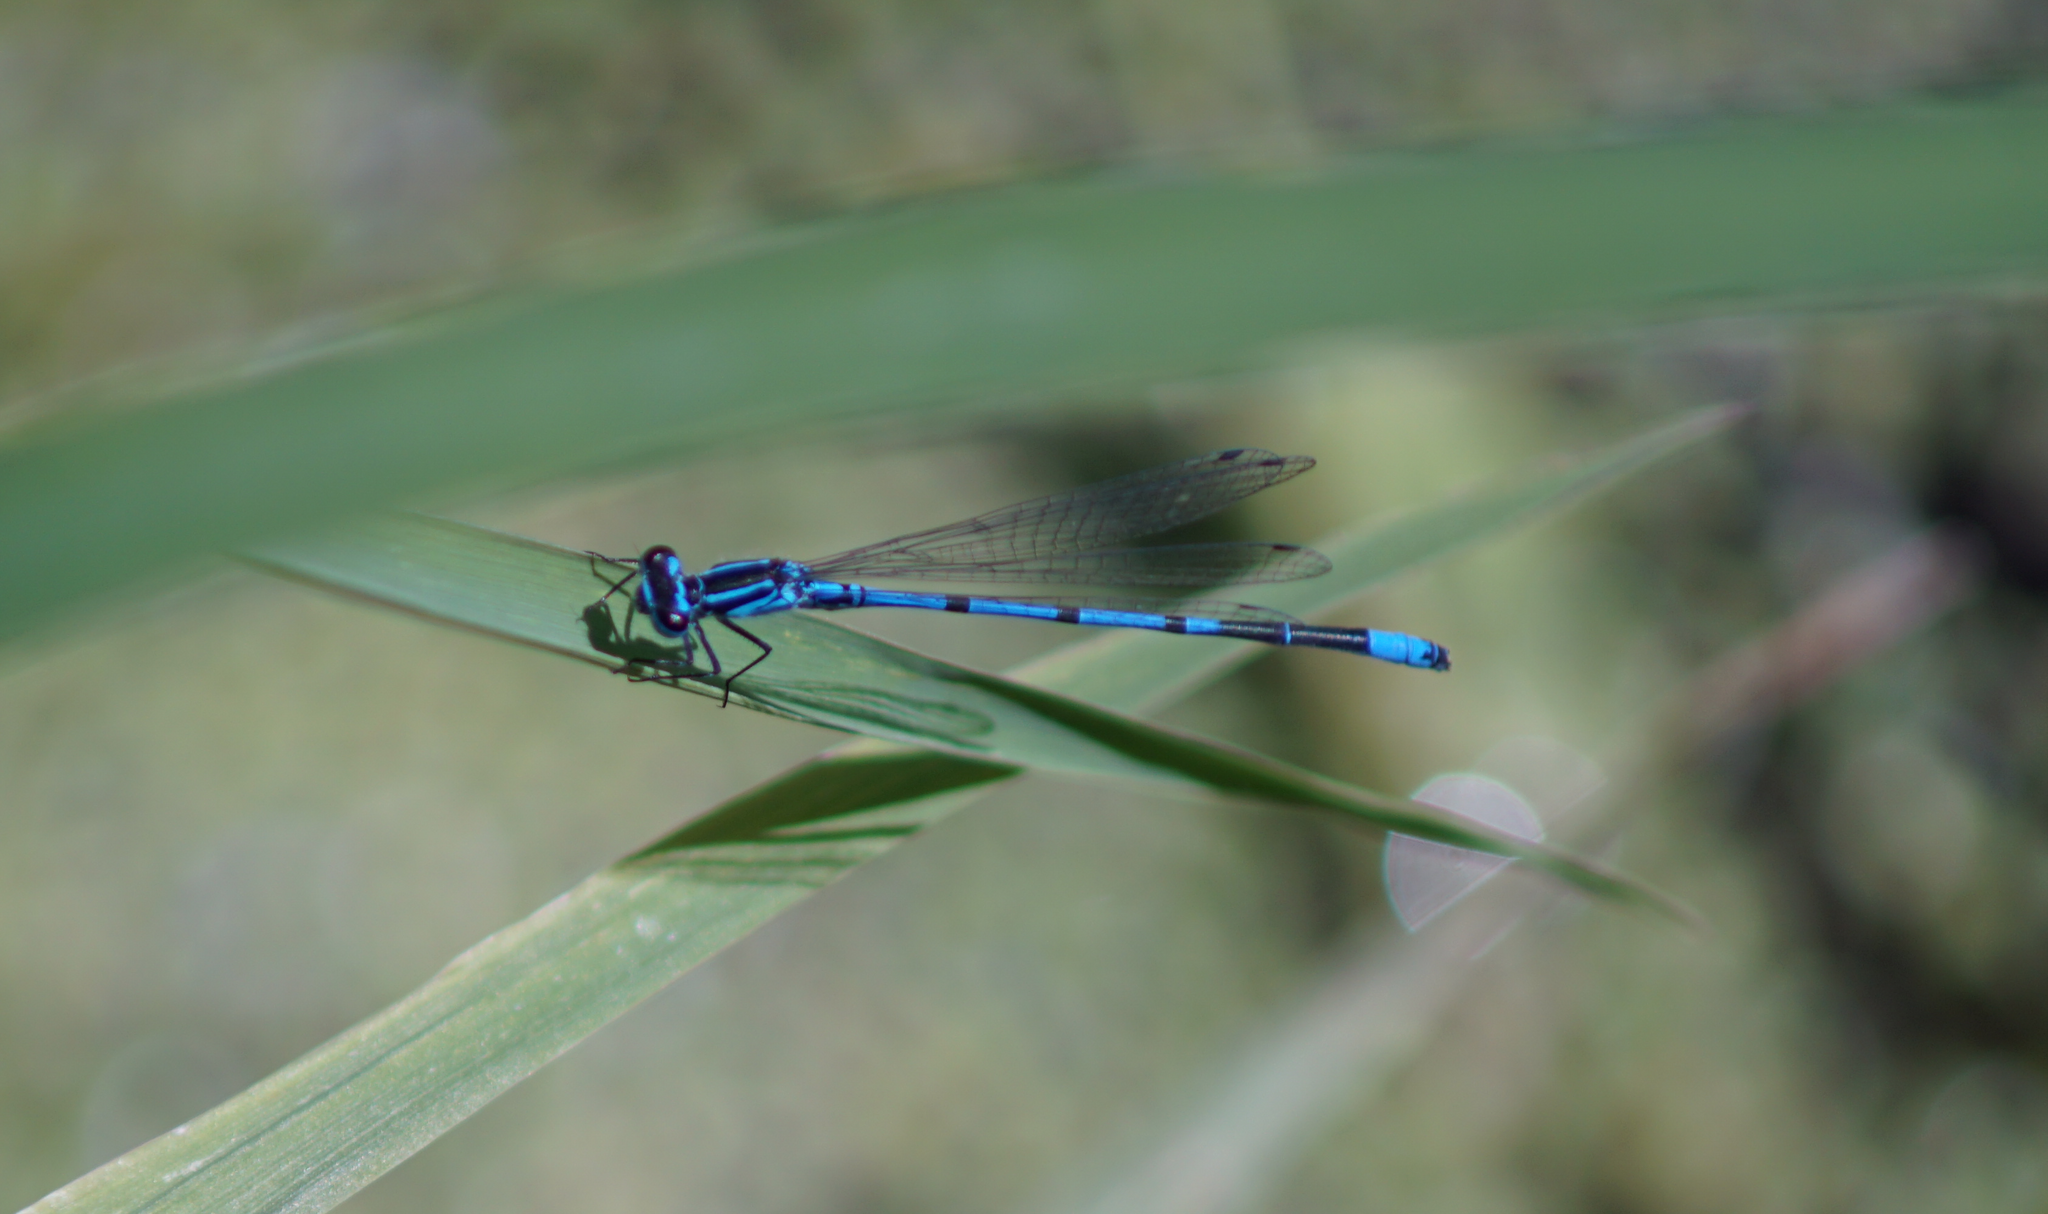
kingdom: Animalia
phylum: Arthropoda
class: Insecta
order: Odonata
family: Coenagrionidae
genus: Coenagrion
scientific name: Coenagrion puella
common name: Azure damselfly
